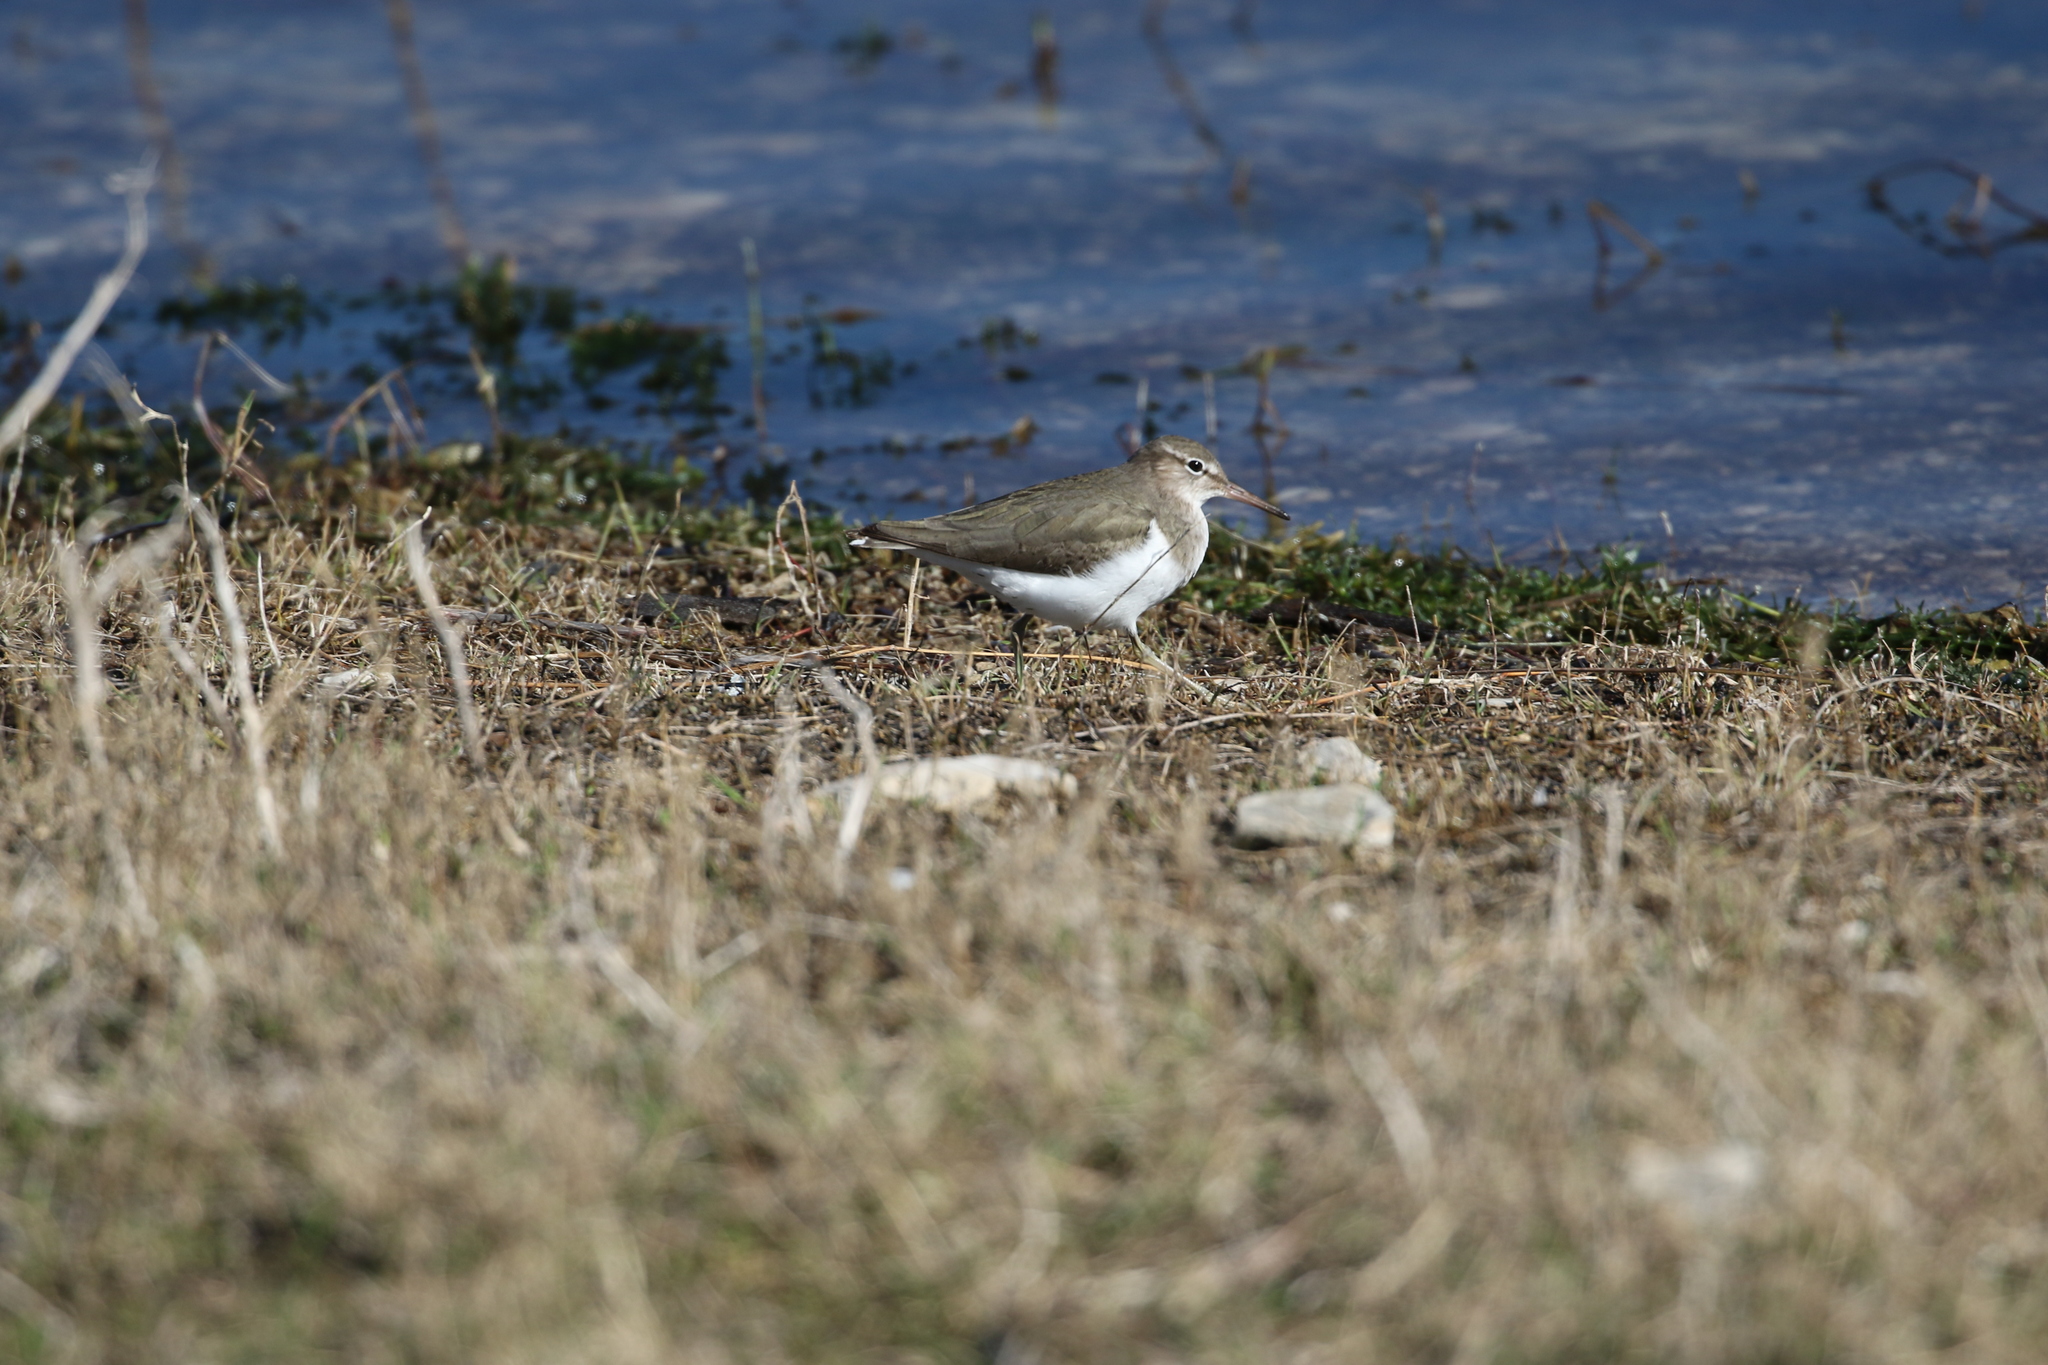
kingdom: Animalia
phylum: Chordata
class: Aves
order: Charadriiformes
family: Scolopacidae
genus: Actitis
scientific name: Actitis macularius
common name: Spotted sandpiper
